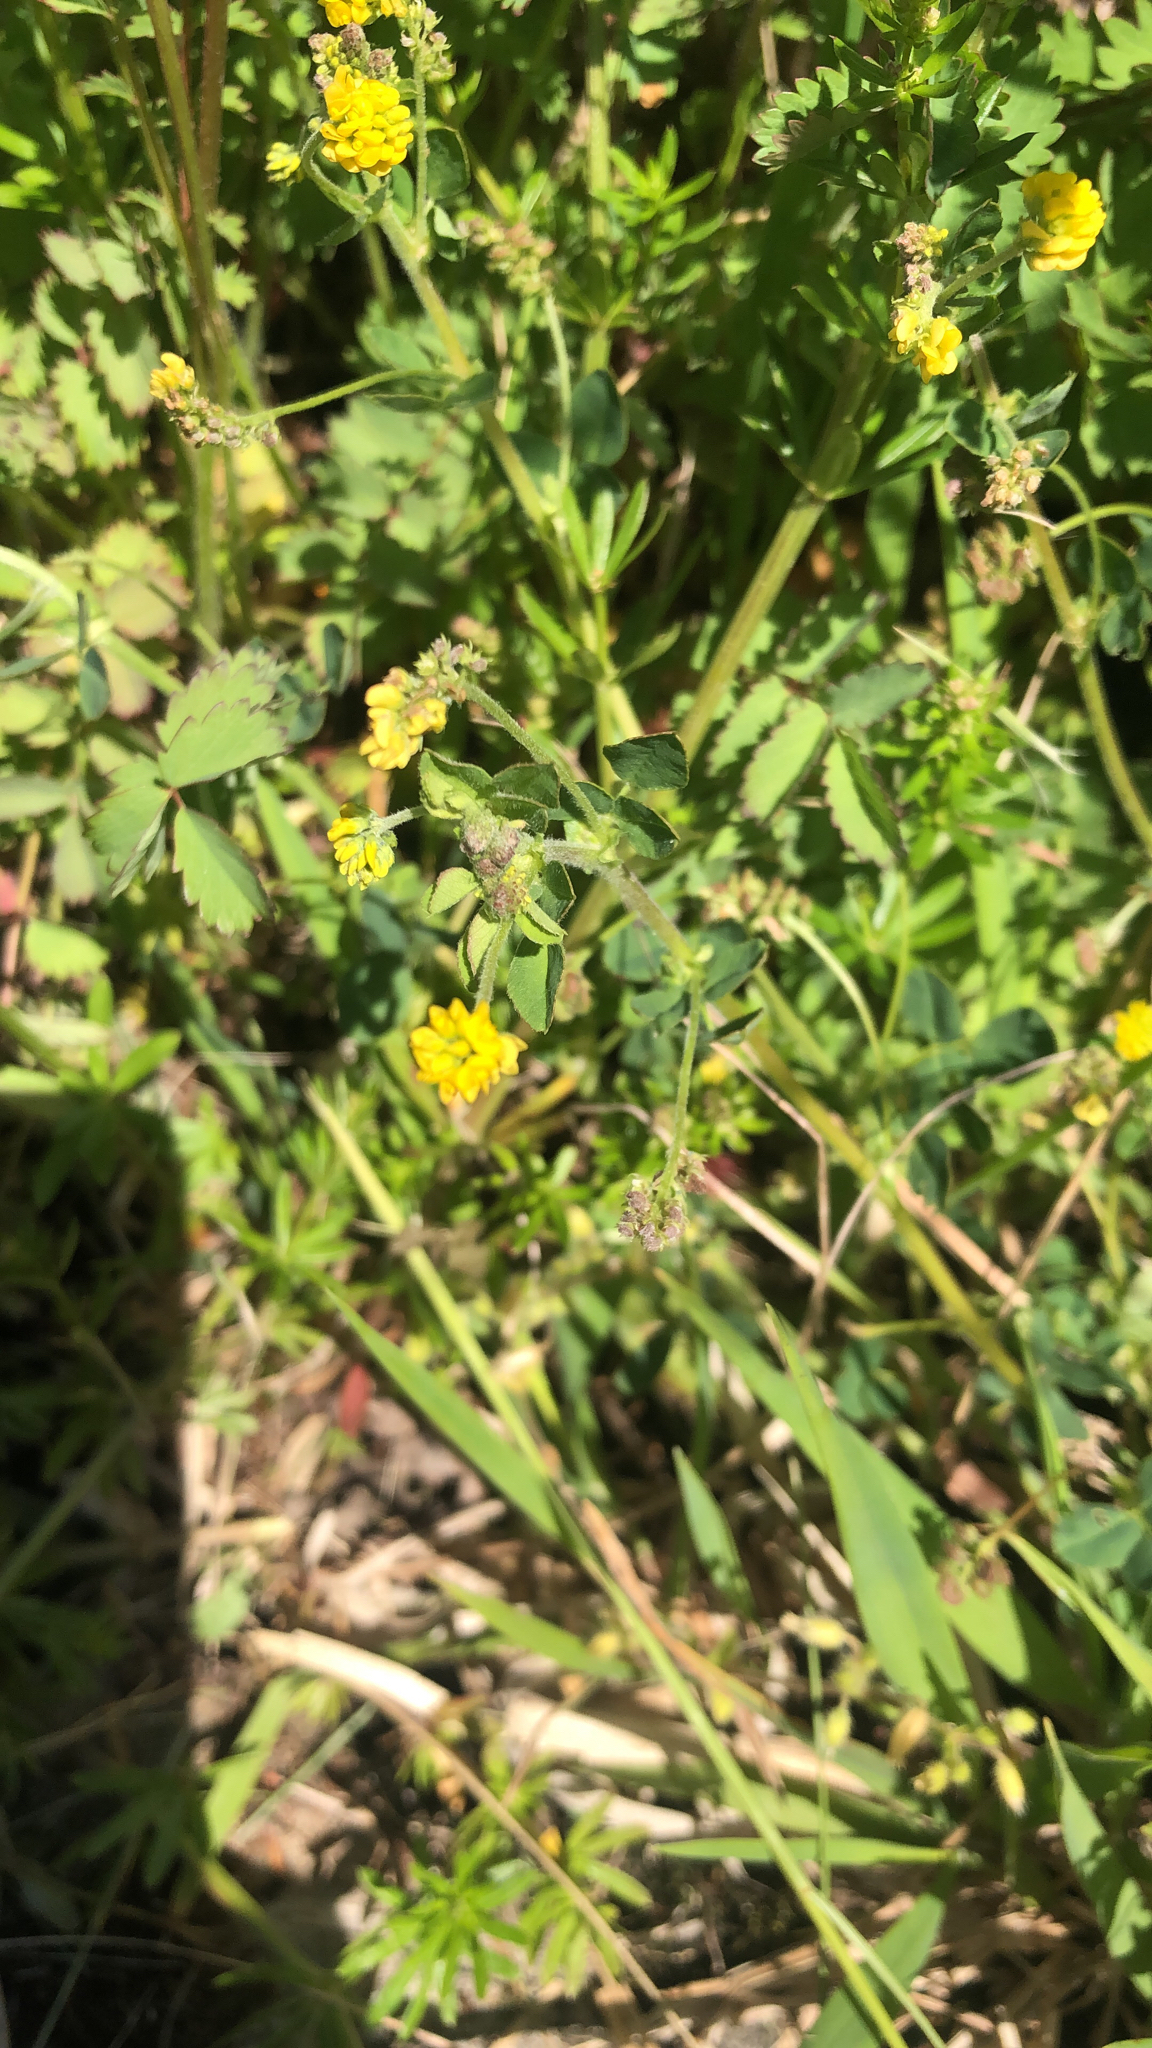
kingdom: Plantae
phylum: Tracheophyta
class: Magnoliopsida
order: Fabales
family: Fabaceae
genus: Medicago
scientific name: Medicago lupulina
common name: Black medick
